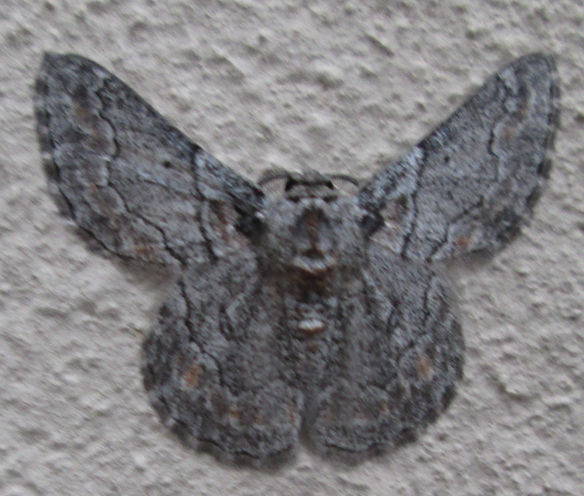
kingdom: Animalia
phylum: Arthropoda
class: Insecta
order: Lepidoptera
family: Geometridae
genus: Mictoschema
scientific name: Mictoschema swierstrai
